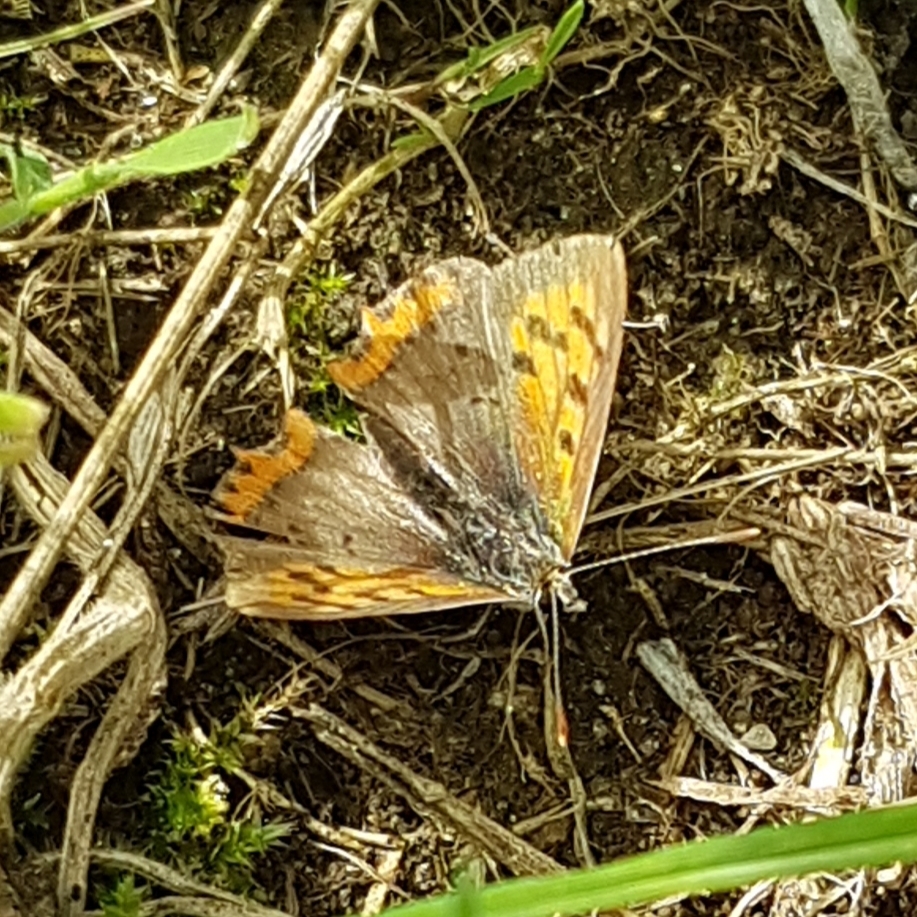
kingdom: Animalia
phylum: Arthropoda
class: Insecta
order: Lepidoptera
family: Lycaenidae
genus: Lycaena
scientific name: Lycaena phlaeas
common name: Small copper
